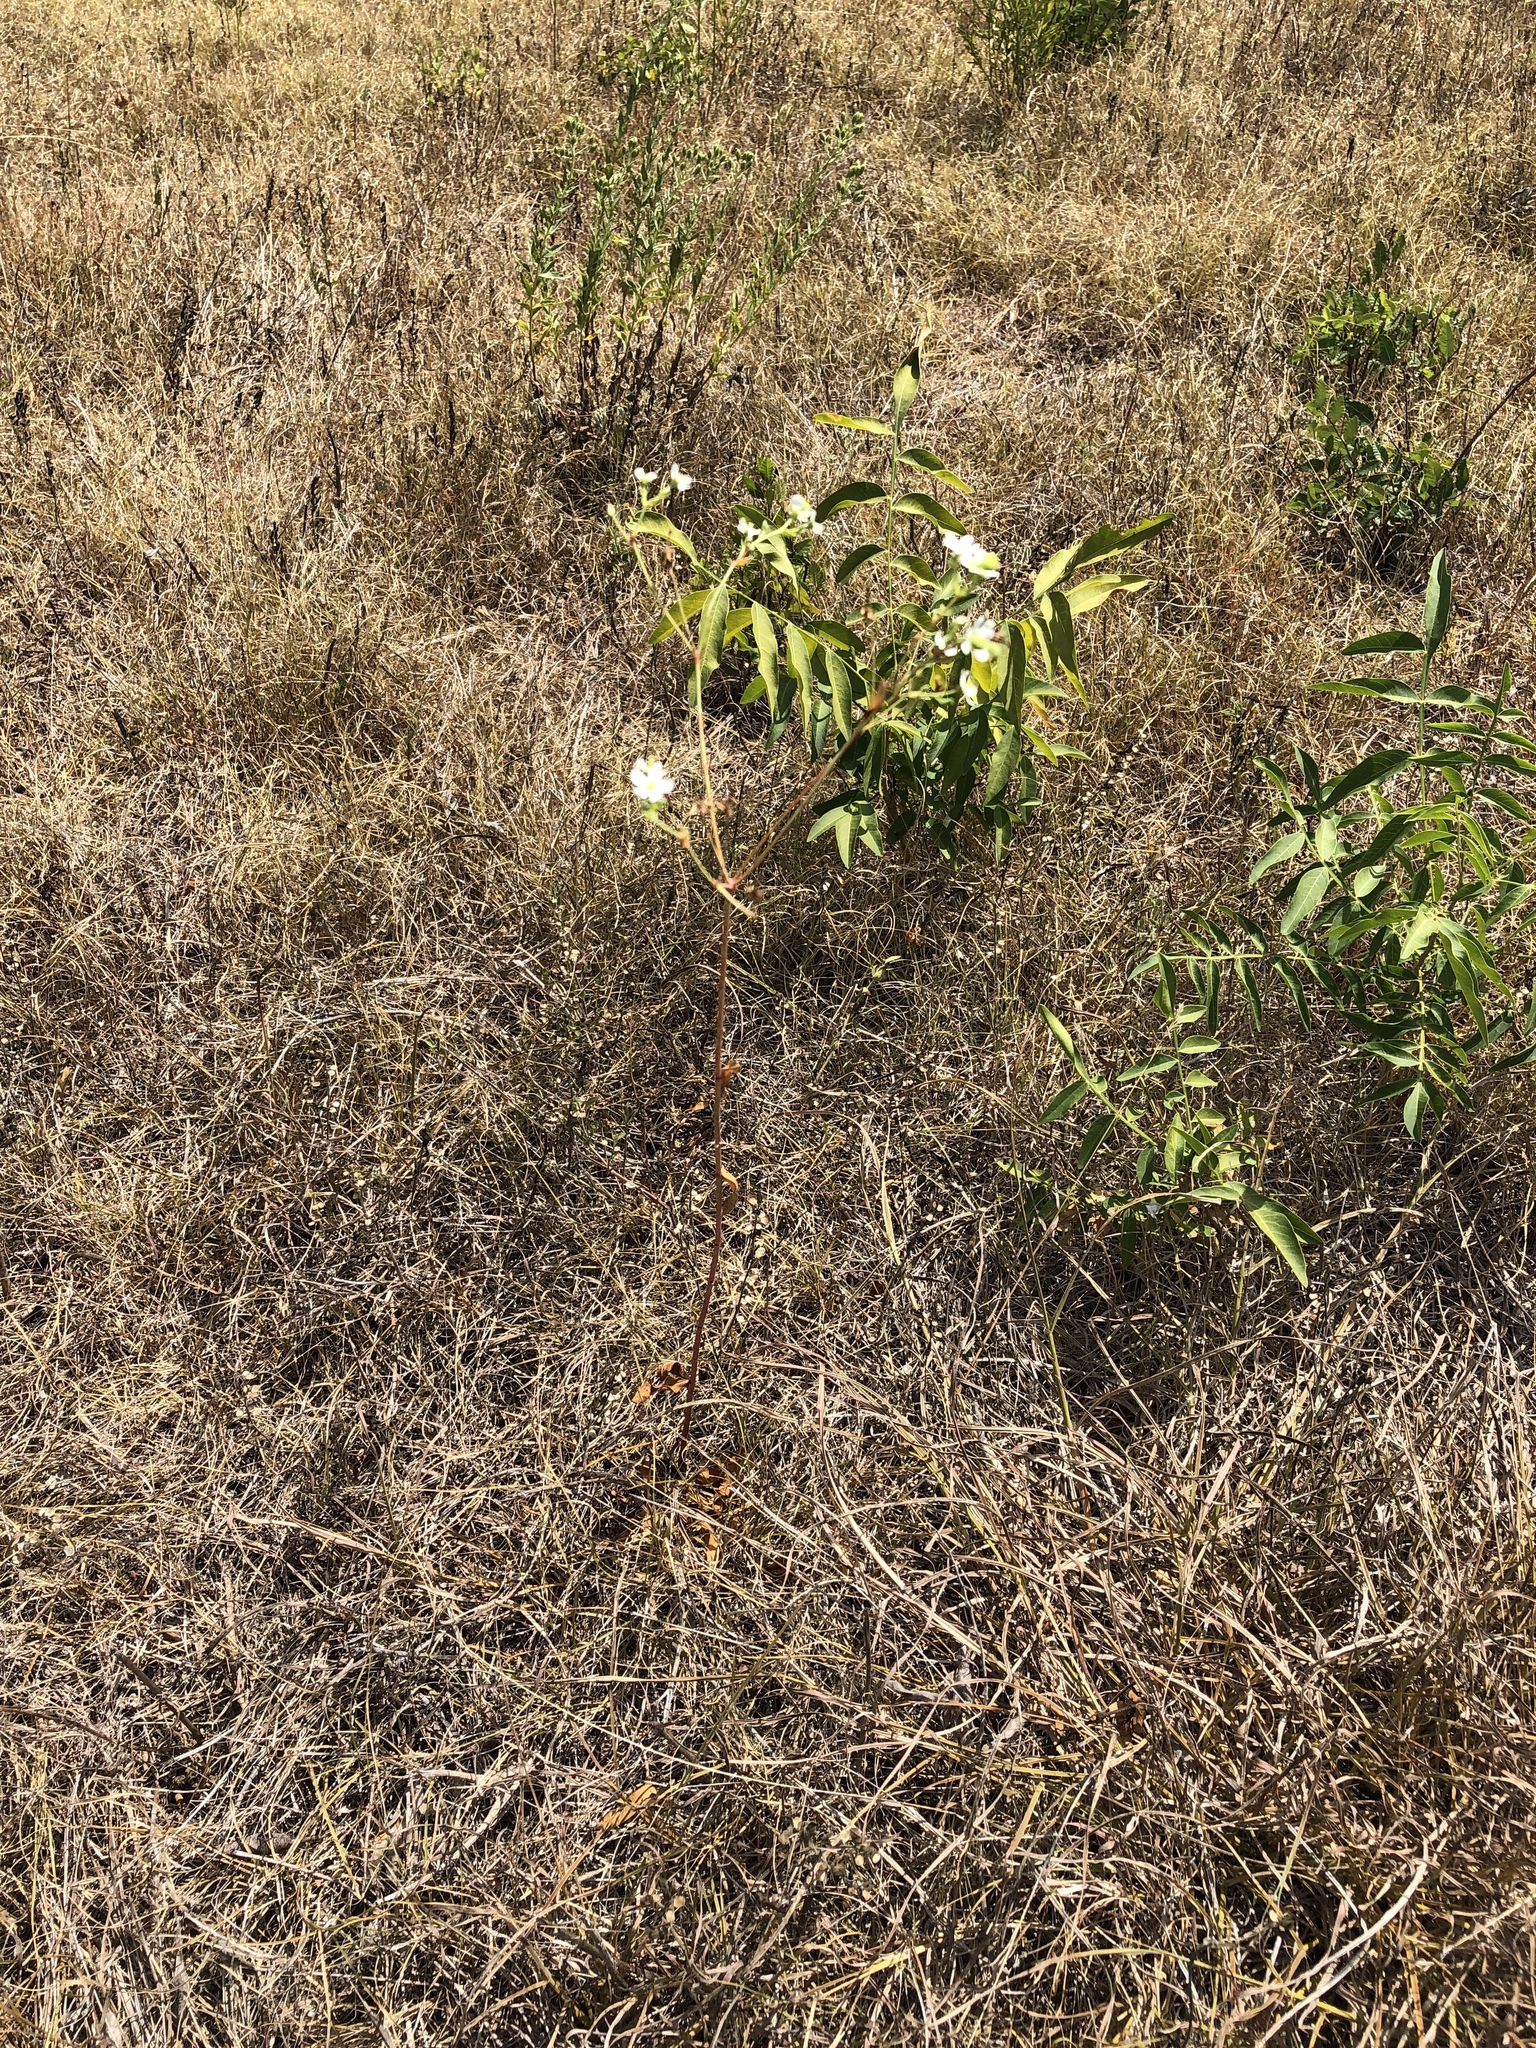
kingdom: Plantae
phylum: Tracheophyta
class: Magnoliopsida
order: Malpighiales
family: Euphorbiaceae
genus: Euphorbia
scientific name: Euphorbia corollata
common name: Flowering spurge
